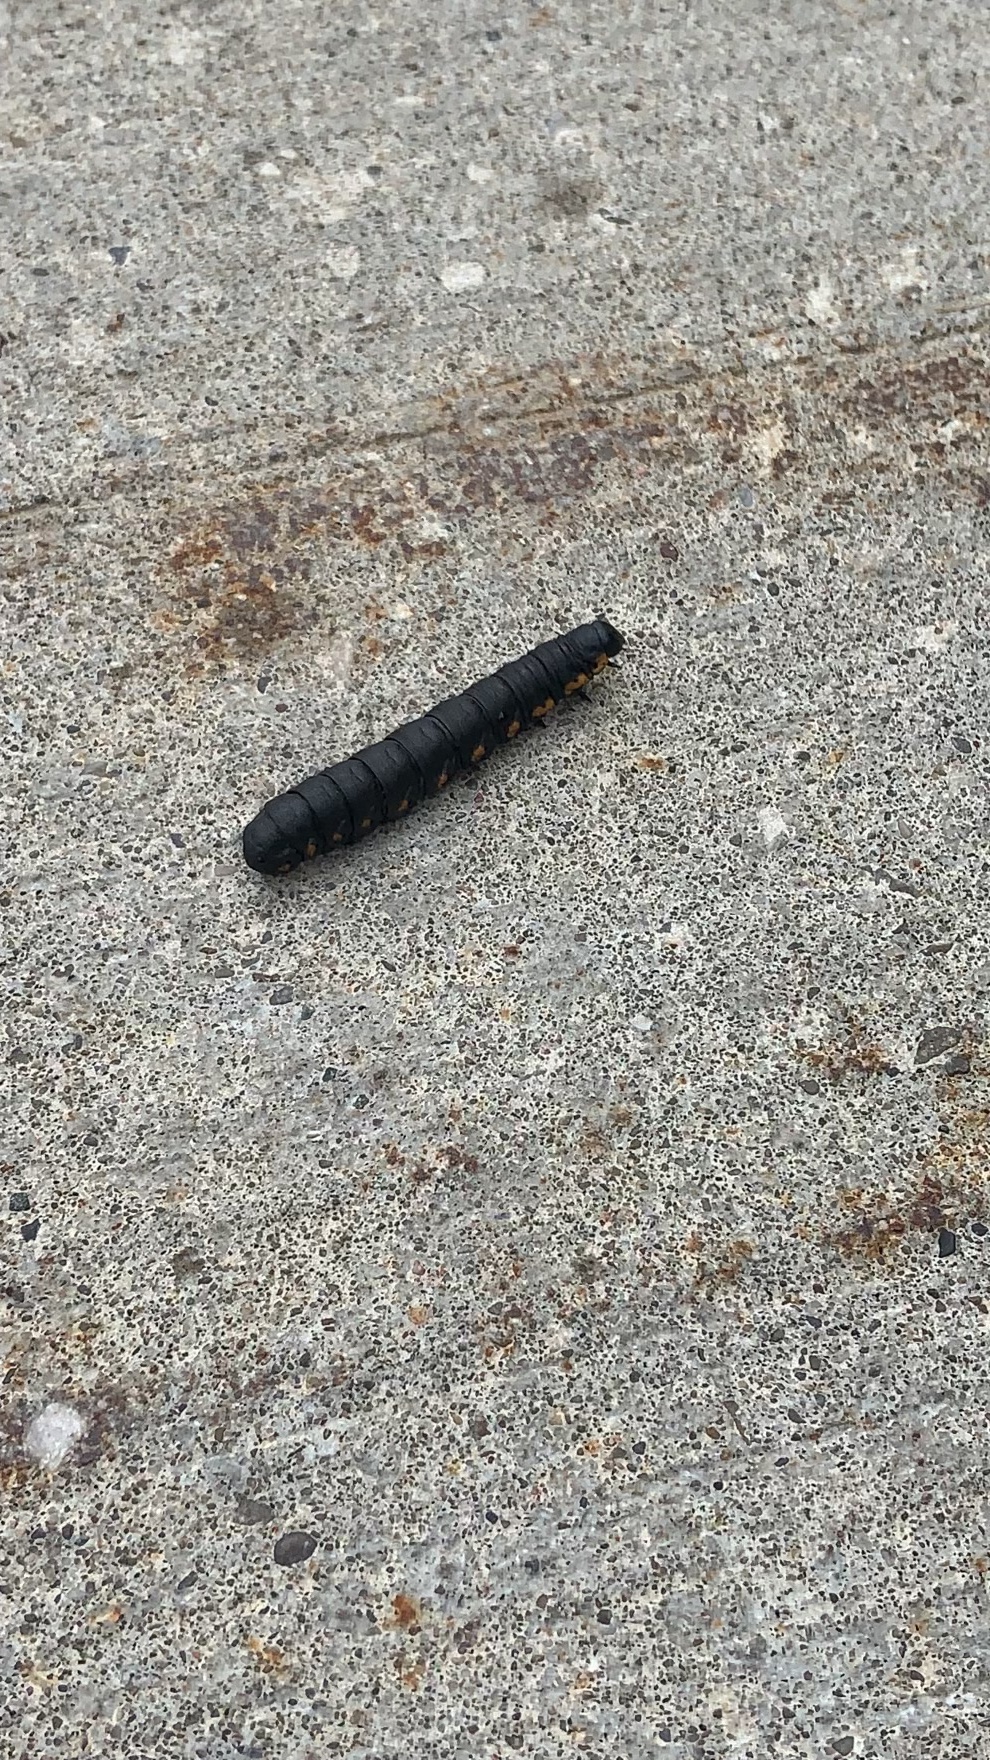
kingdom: Animalia
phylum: Arthropoda
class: Insecta
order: Lepidoptera
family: Noctuidae
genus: Cucullia
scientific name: Cucullia intermedia
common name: Goldenrod cutworm
